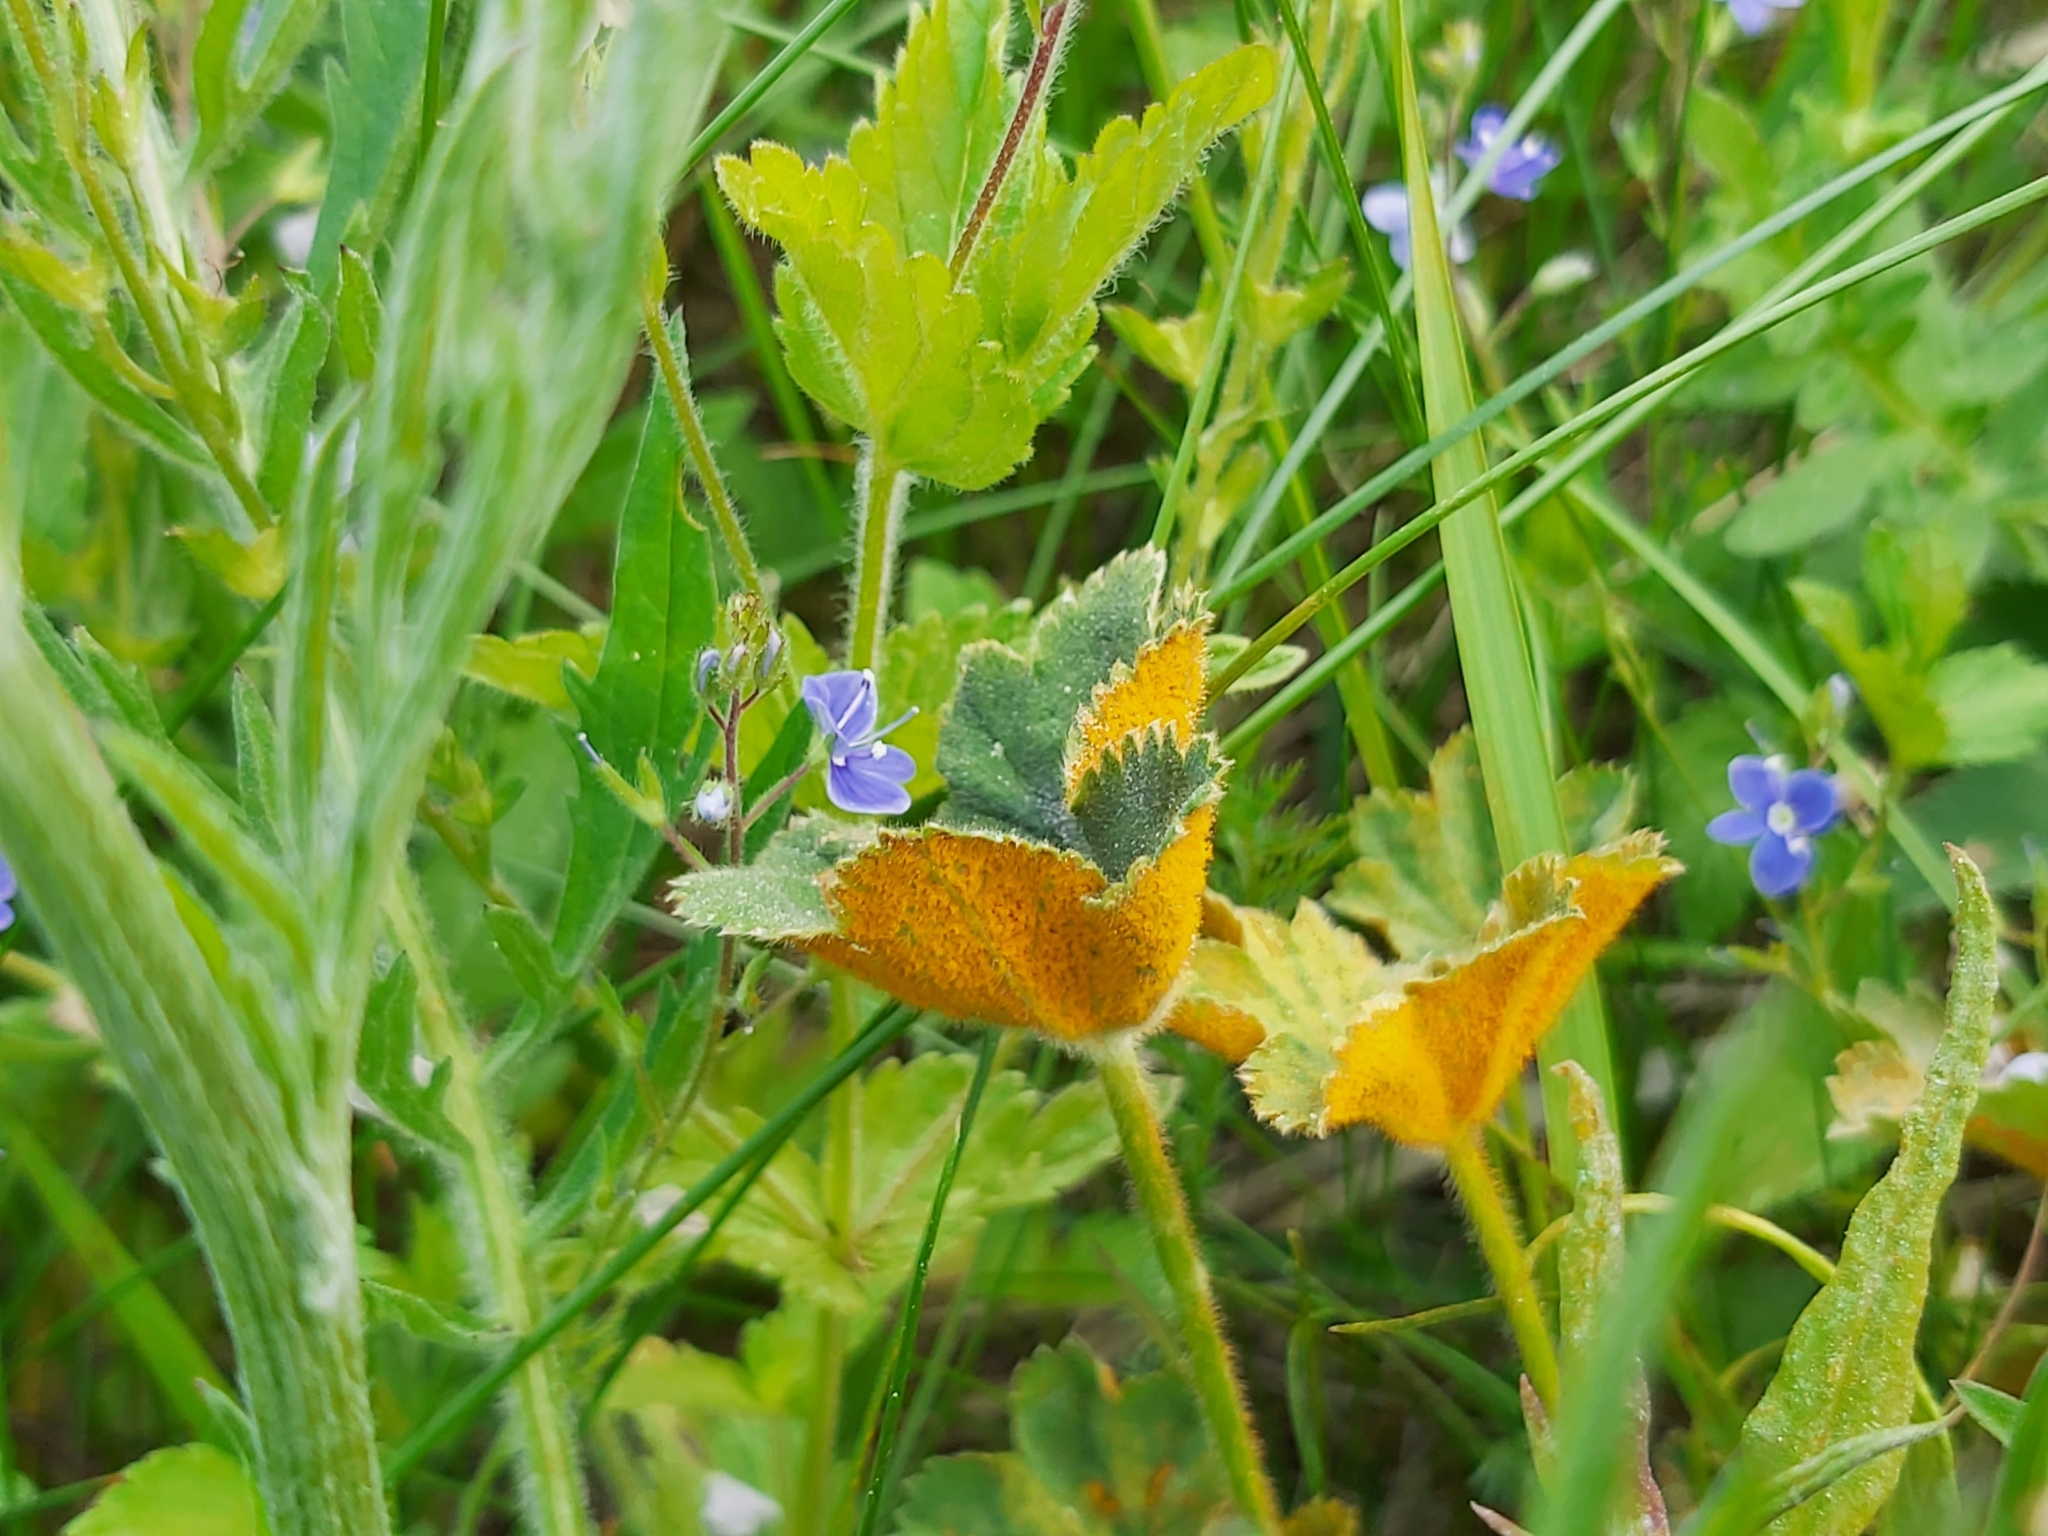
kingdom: Fungi
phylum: Basidiomycota
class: Pucciniomycetes
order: Pucciniales
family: Phragmidiaceae
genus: Trachyspora
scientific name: Trachyspora alchemillae
